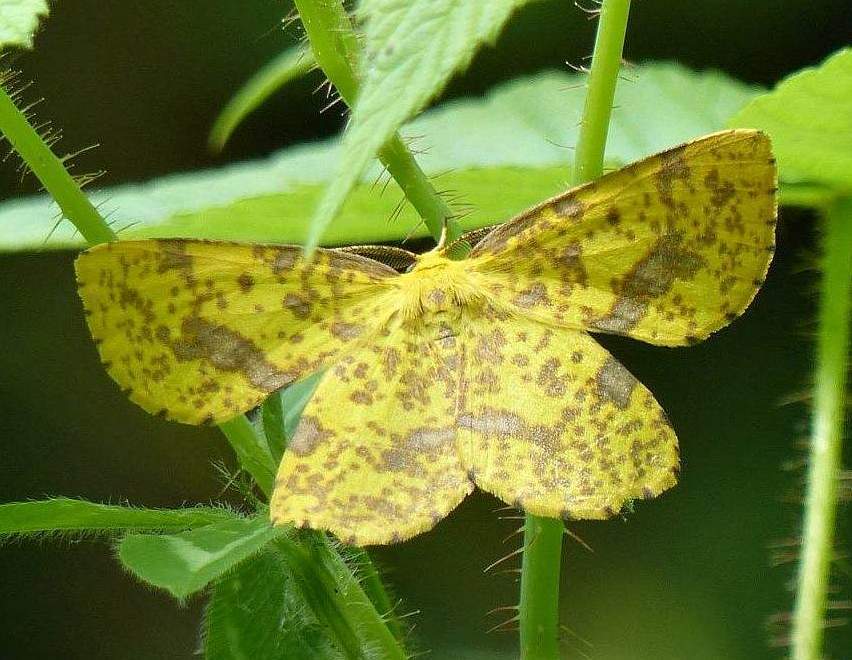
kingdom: Animalia
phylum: Arthropoda
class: Insecta
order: Lepidoptera
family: Geometridae
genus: Xanthotype
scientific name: Xanthotype
